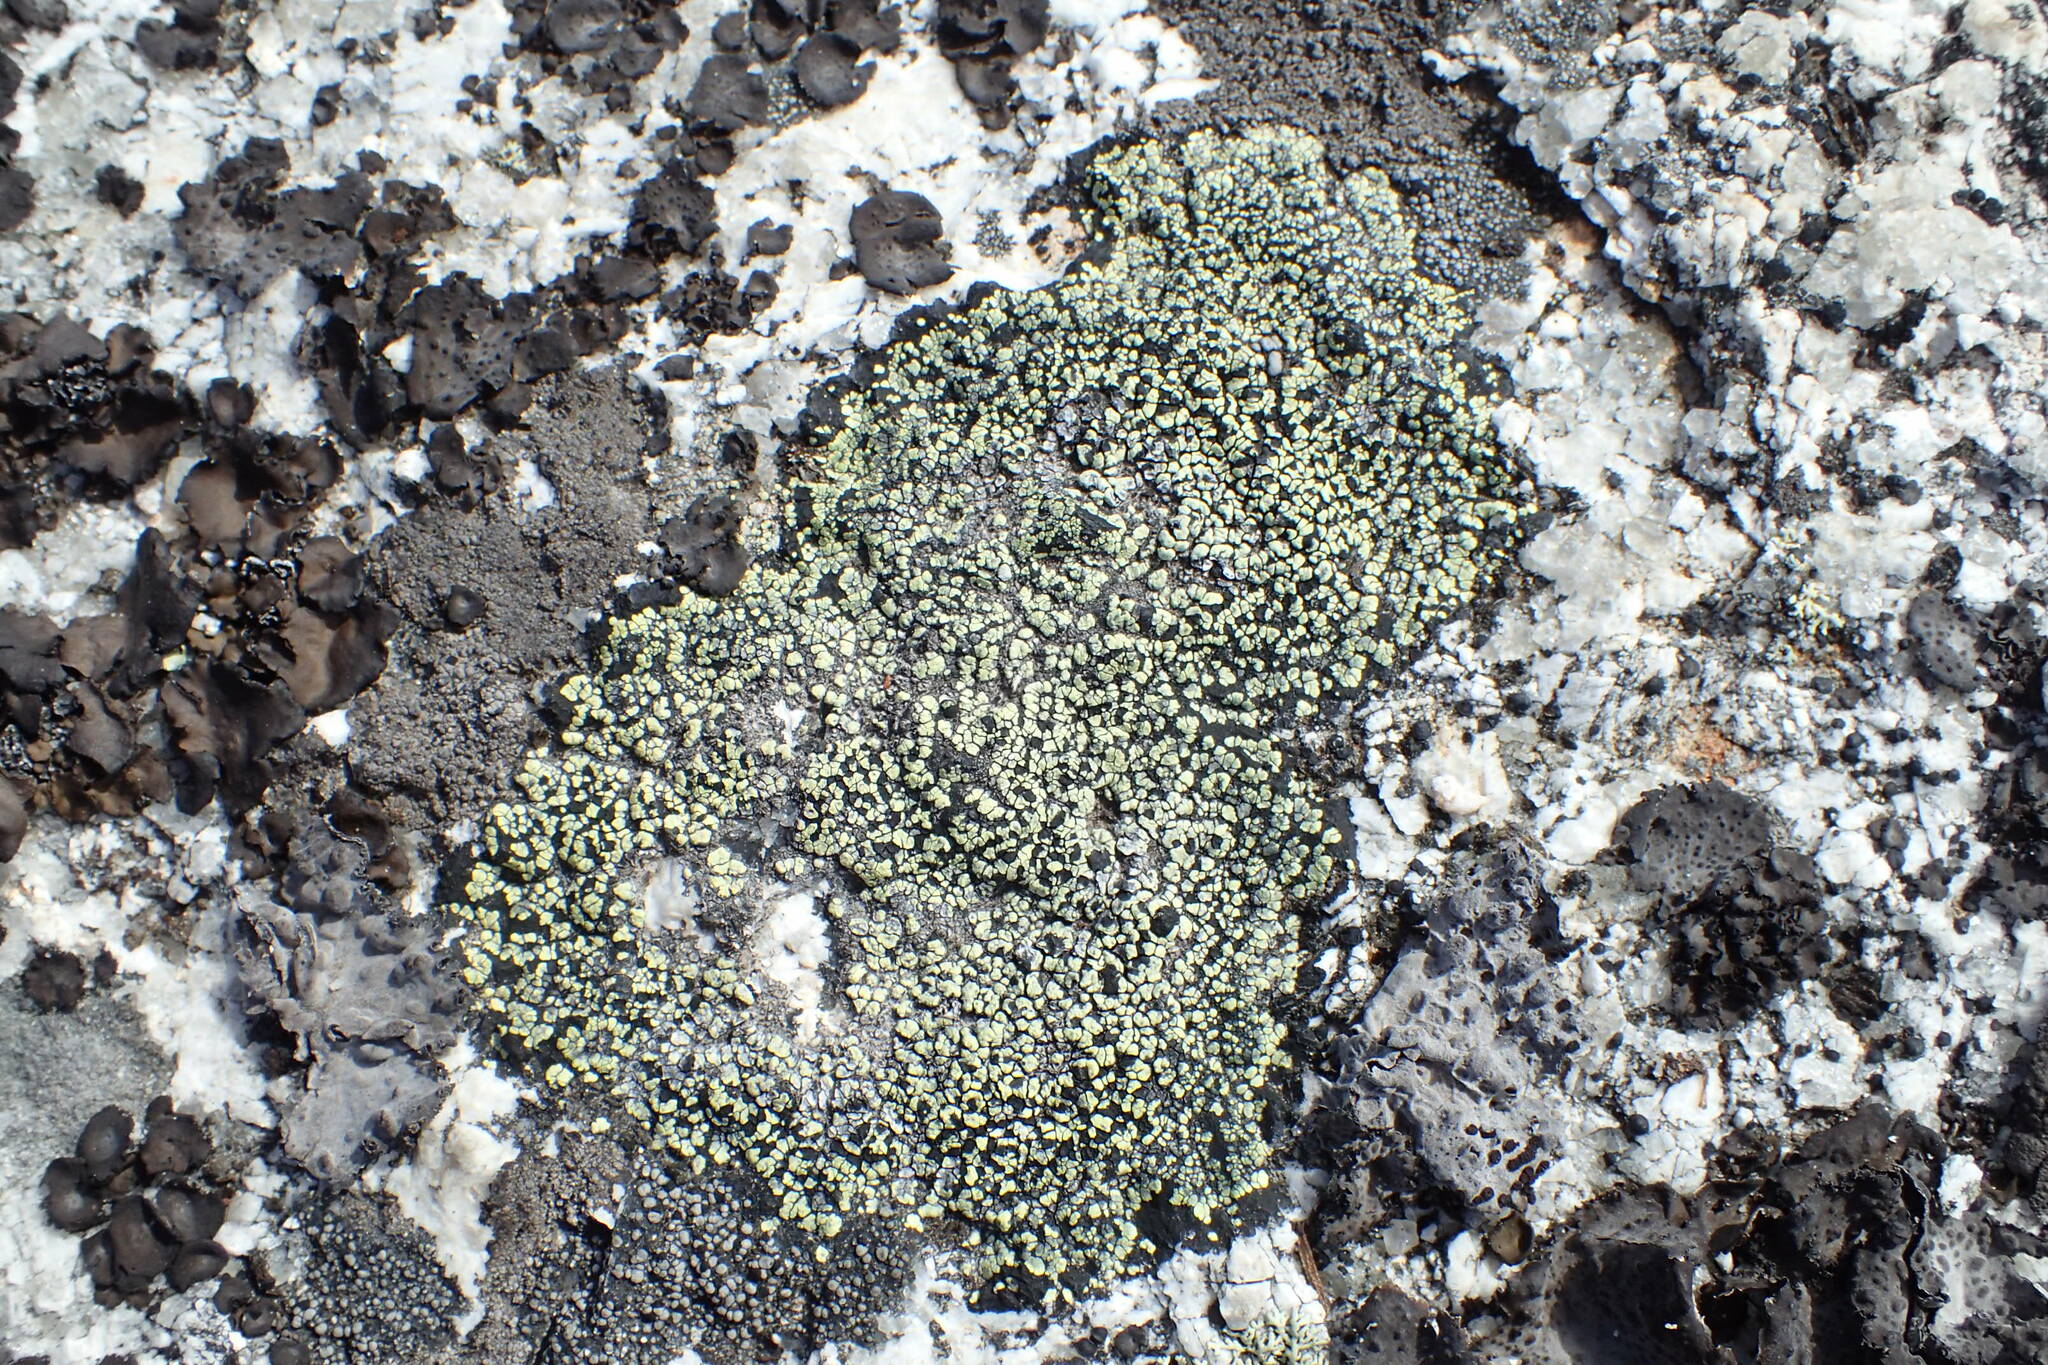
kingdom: Fungi
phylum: Ascomycota
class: Lecanoromycetes
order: Rhizocarpales
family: Rhizocarpaceae
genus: Rhizocarpon
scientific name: Rhizocarpon geographicum
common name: Yellow map lichen
